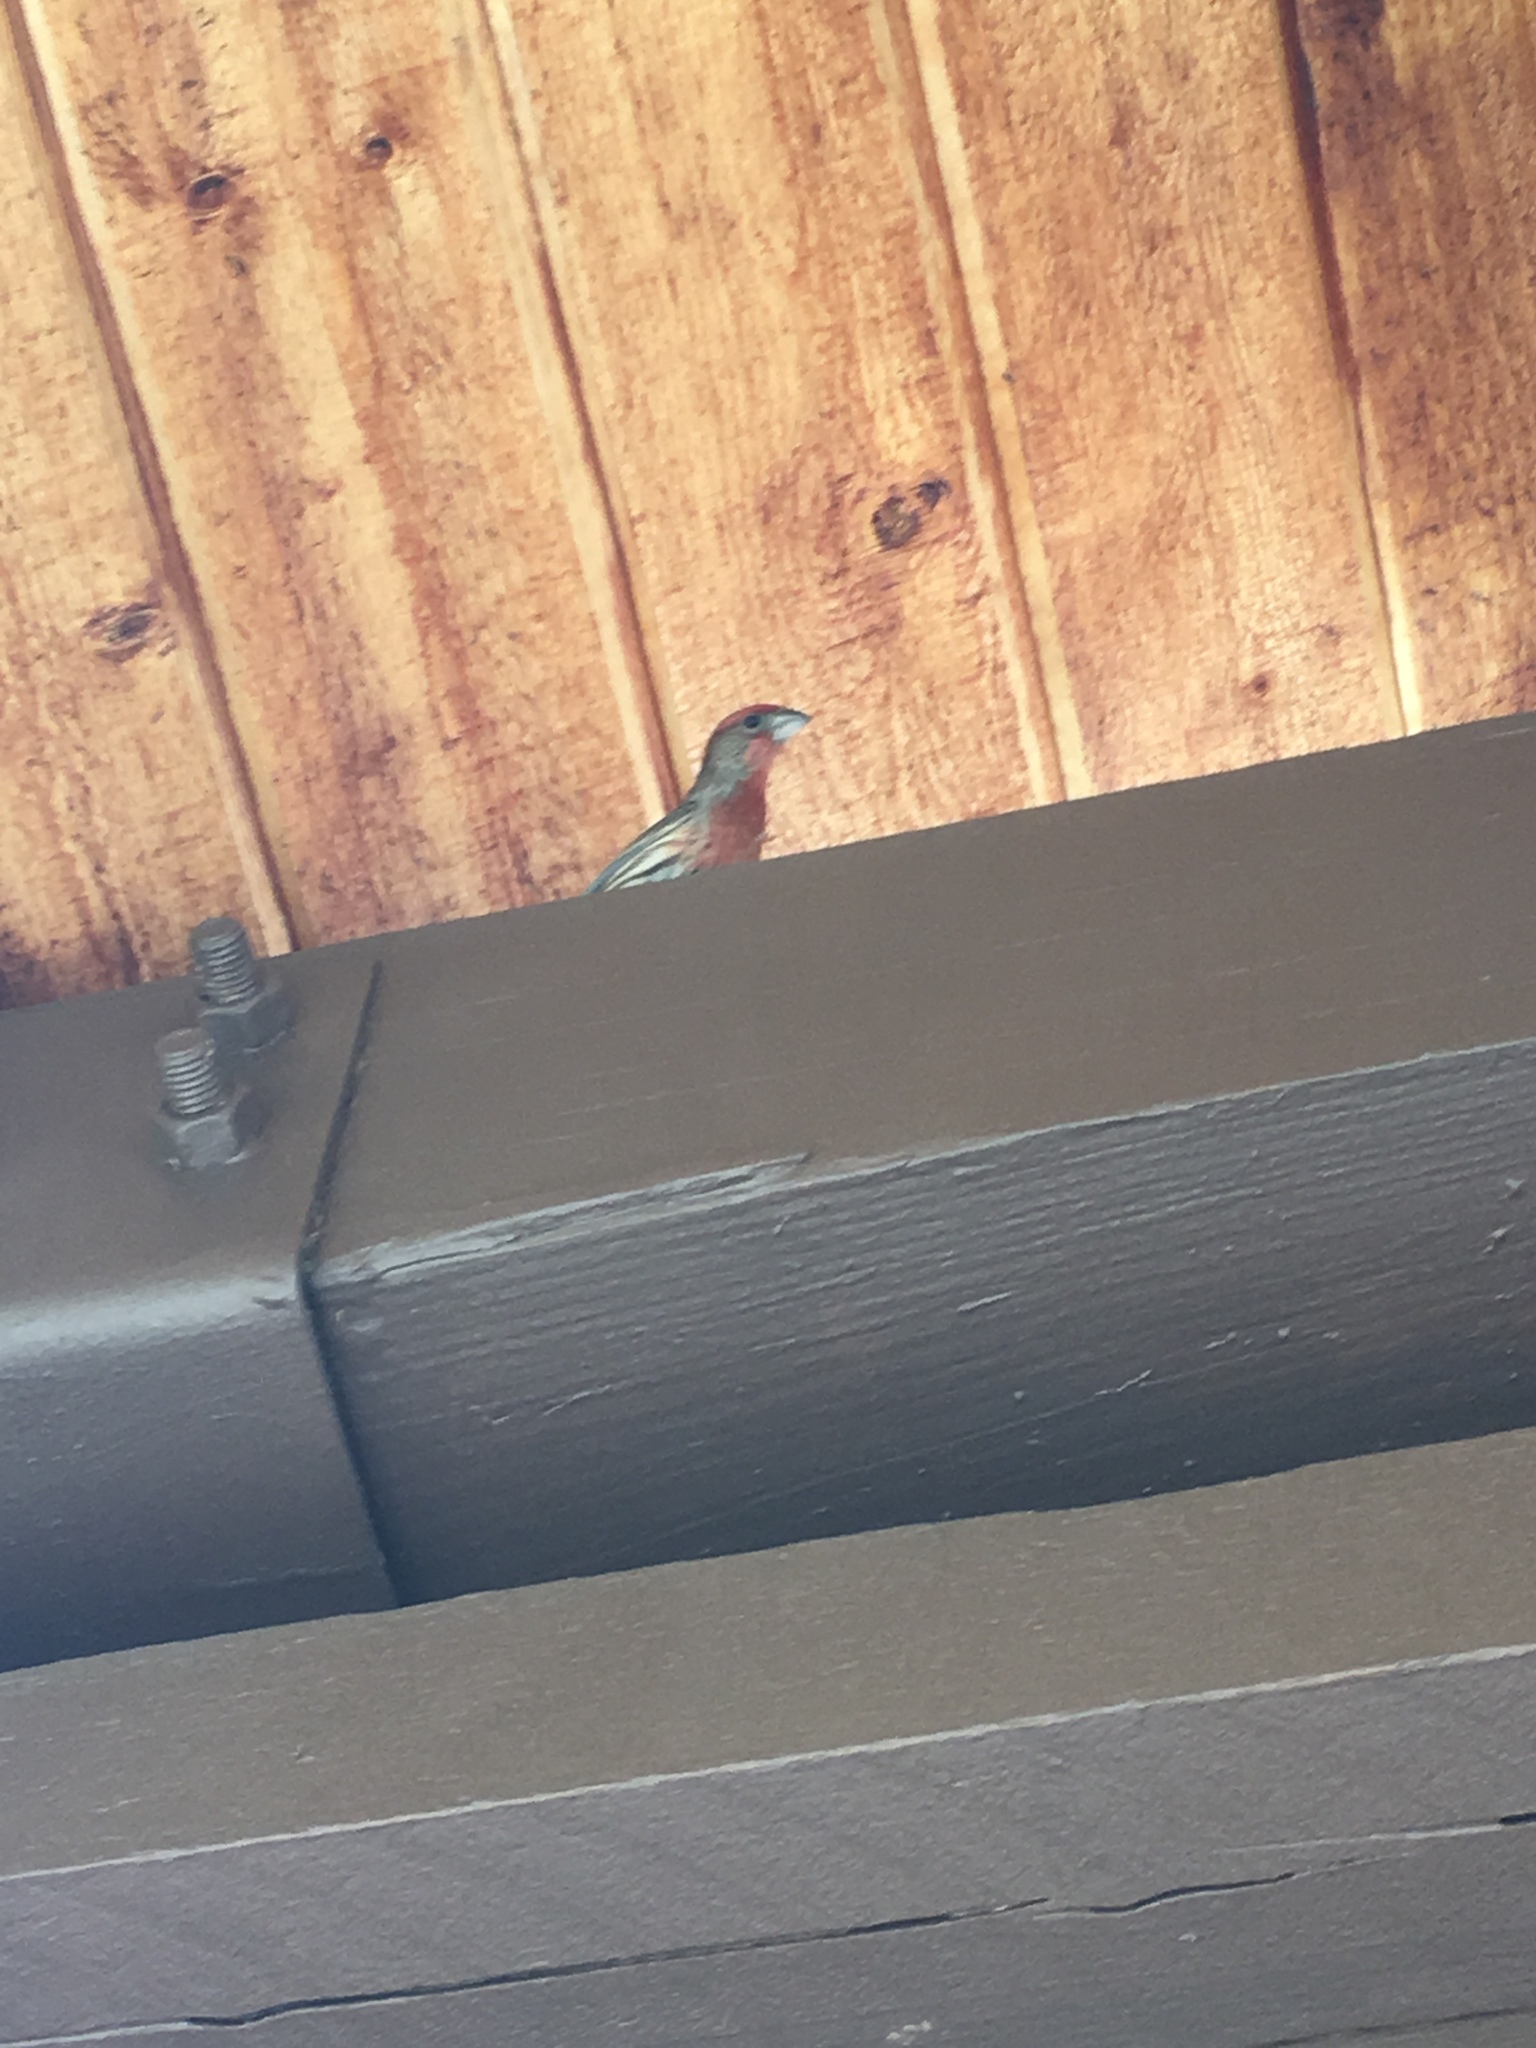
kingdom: Animalia
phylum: Chordata
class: Aves
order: Passeriformes
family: Fringillidae
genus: Haemorhous
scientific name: Haemorhous mexicanus
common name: House finch
